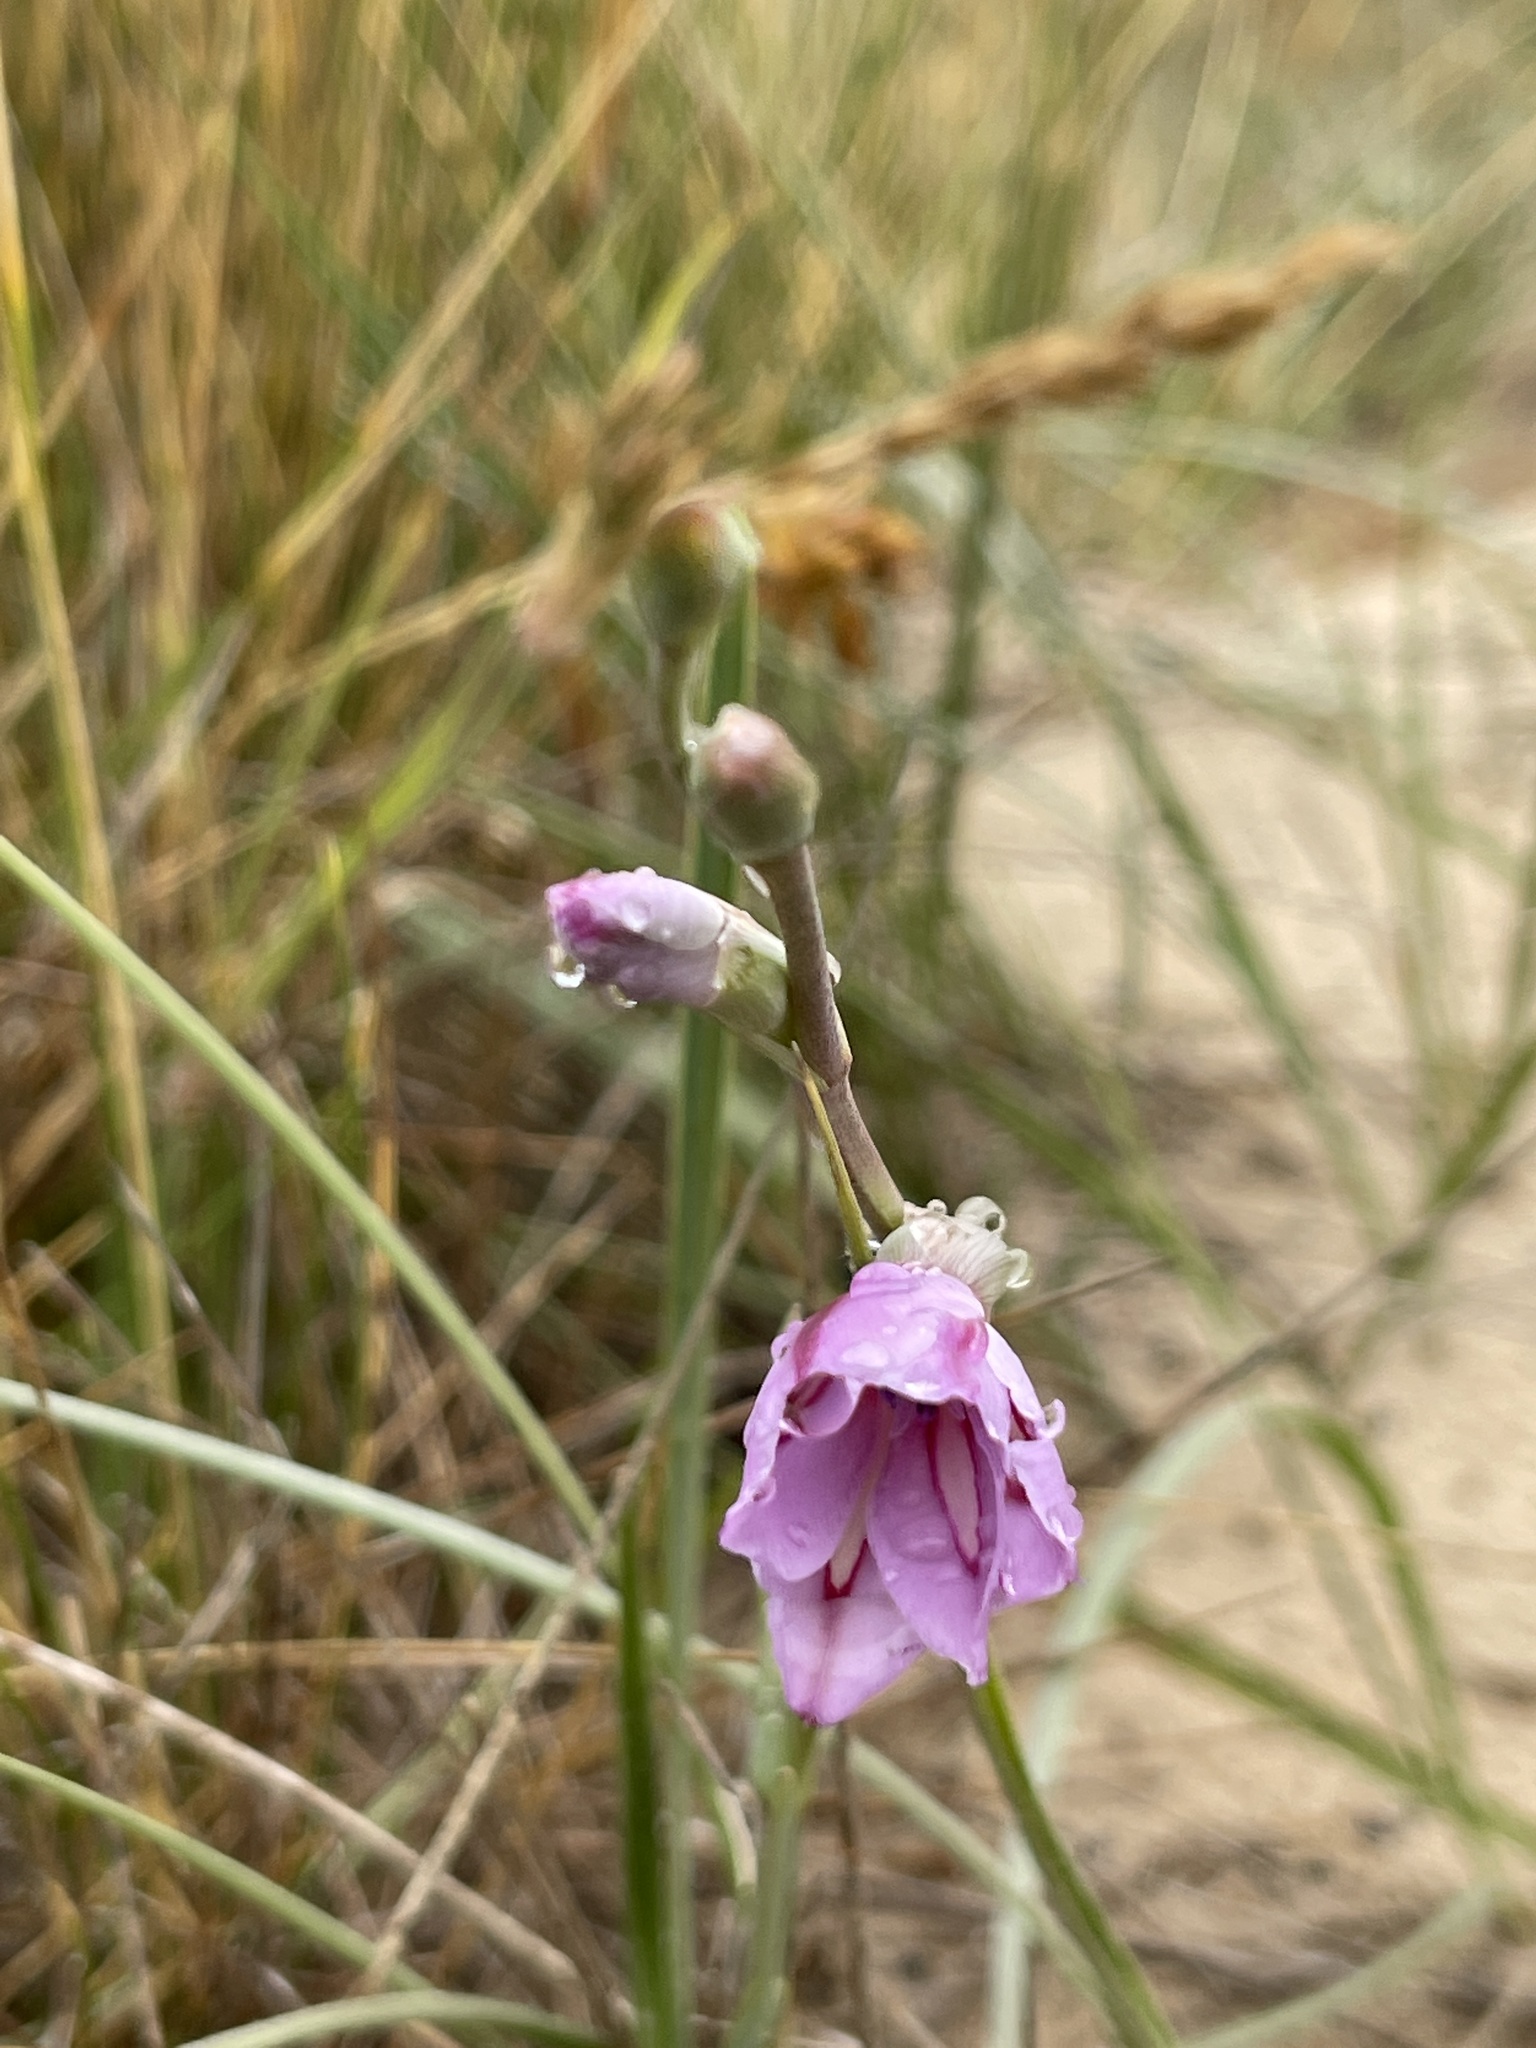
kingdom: Plantae
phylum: Tracheophyta
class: Liliopsida
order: Asparagales
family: Iridaceae
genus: Gladiolus
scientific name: Gladiolus gueinzii
